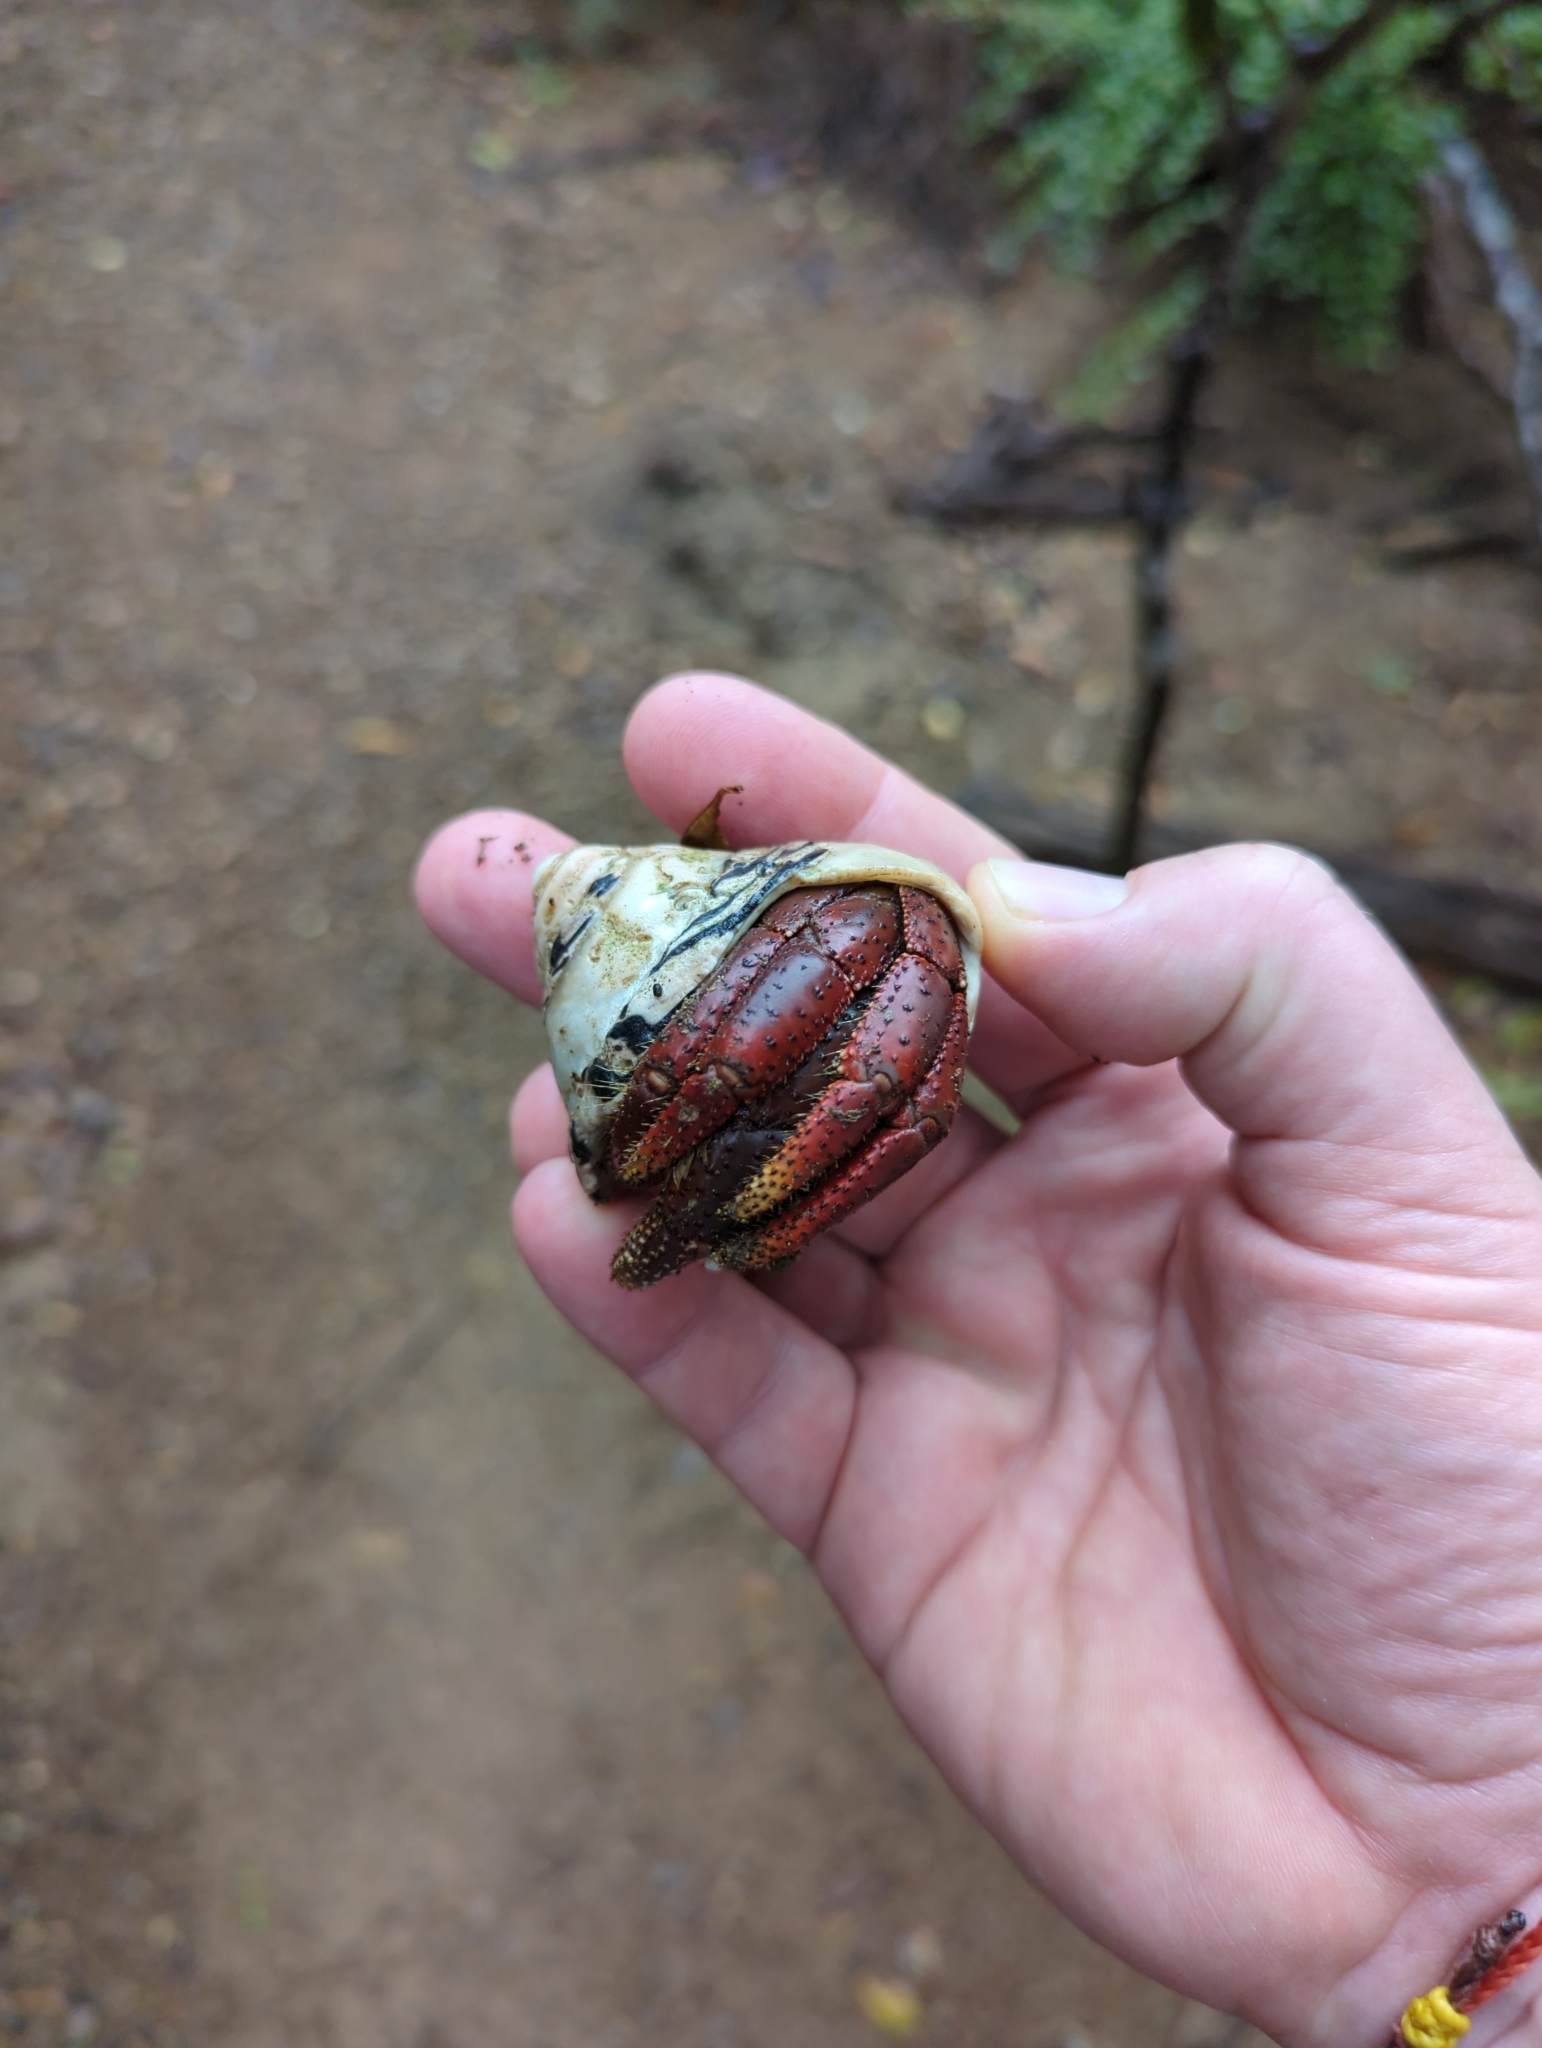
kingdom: Animalia
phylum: Arthropoda
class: Malacostraca
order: Decapoda
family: Coenobitidae
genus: Coenobita
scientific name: Coenobita clypeatus
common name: Caribbean hermit crab
